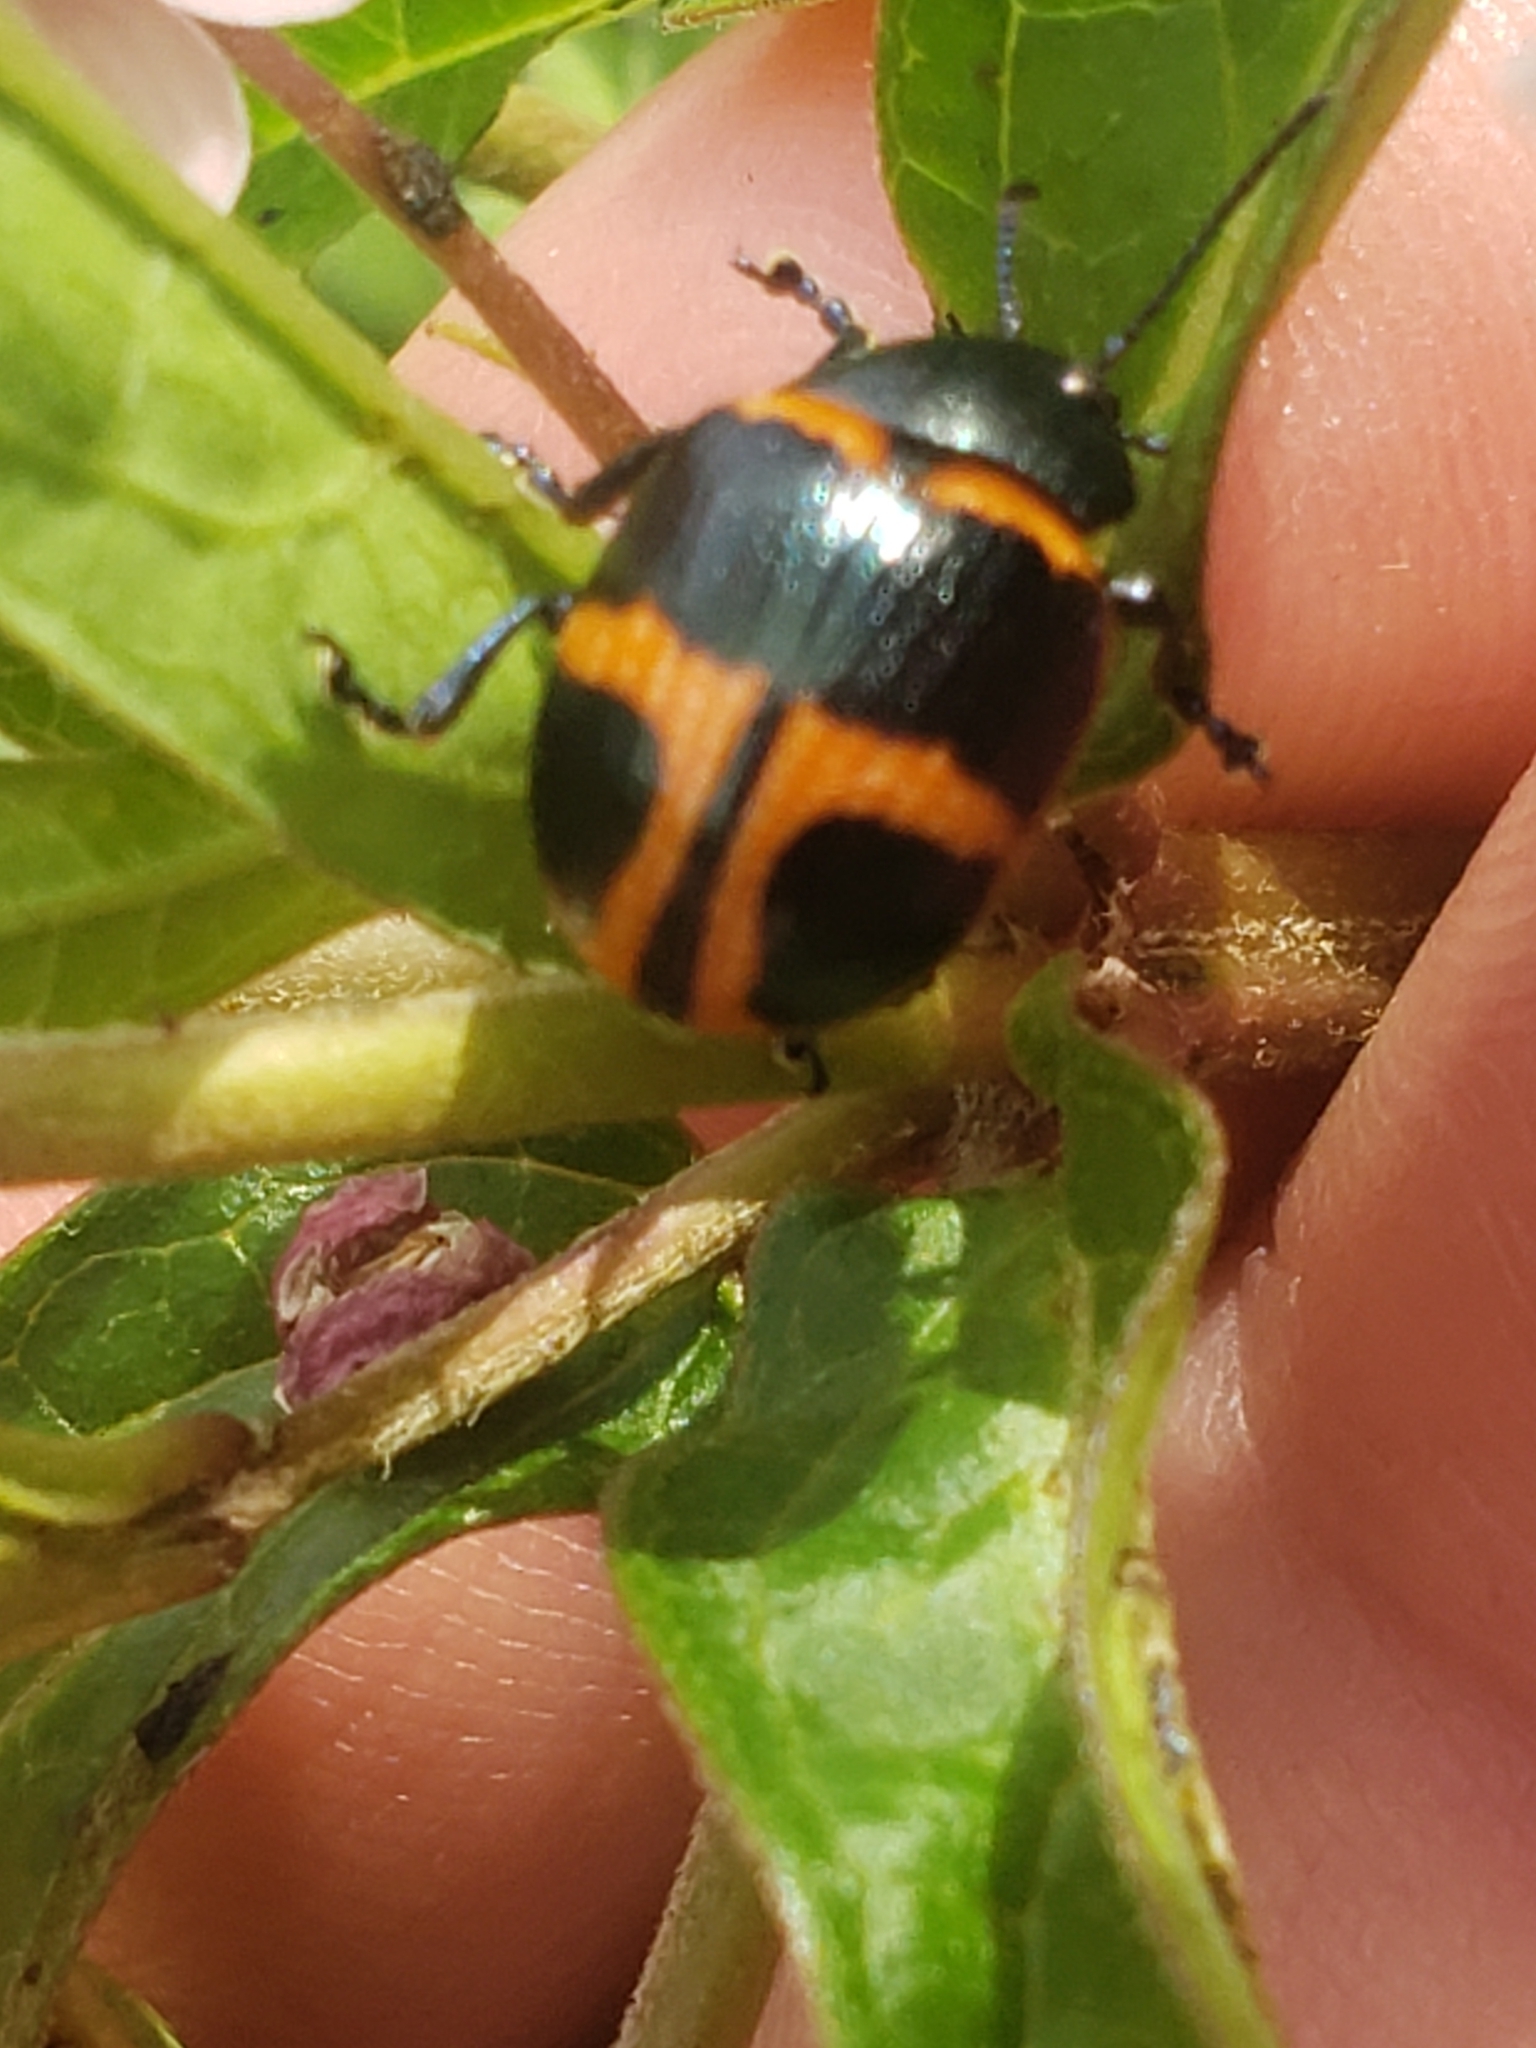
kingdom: Animalia
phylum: Arthropoda
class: Insecta
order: Coleoptera
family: Chrysomelidae
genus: Labidomera
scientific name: Labidomera clivicollis
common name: Swamp milkweed leaf beetle
